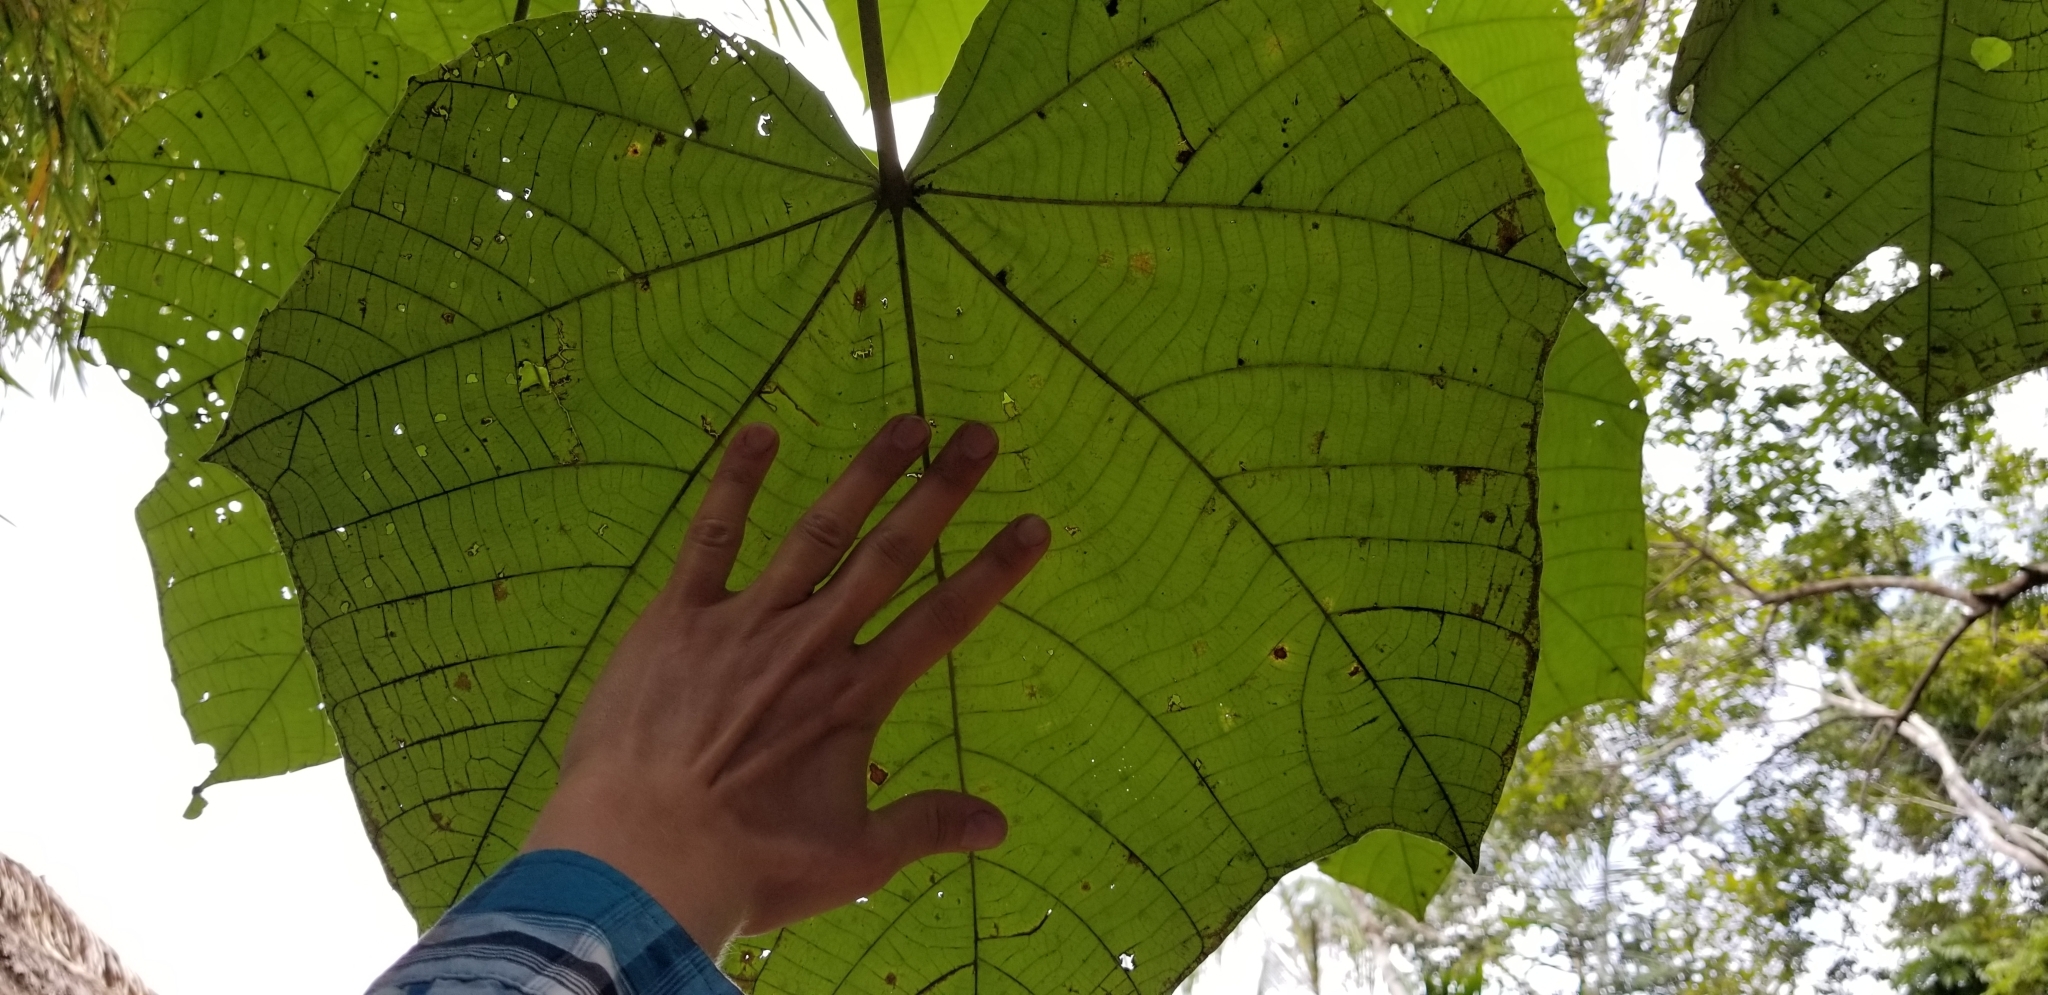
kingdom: Plantae
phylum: Tracheophyta
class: Magnoliopsida
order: Malvales
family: Malvaceae
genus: Ochroma
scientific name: Ochroma pyramidale
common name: Balsa
